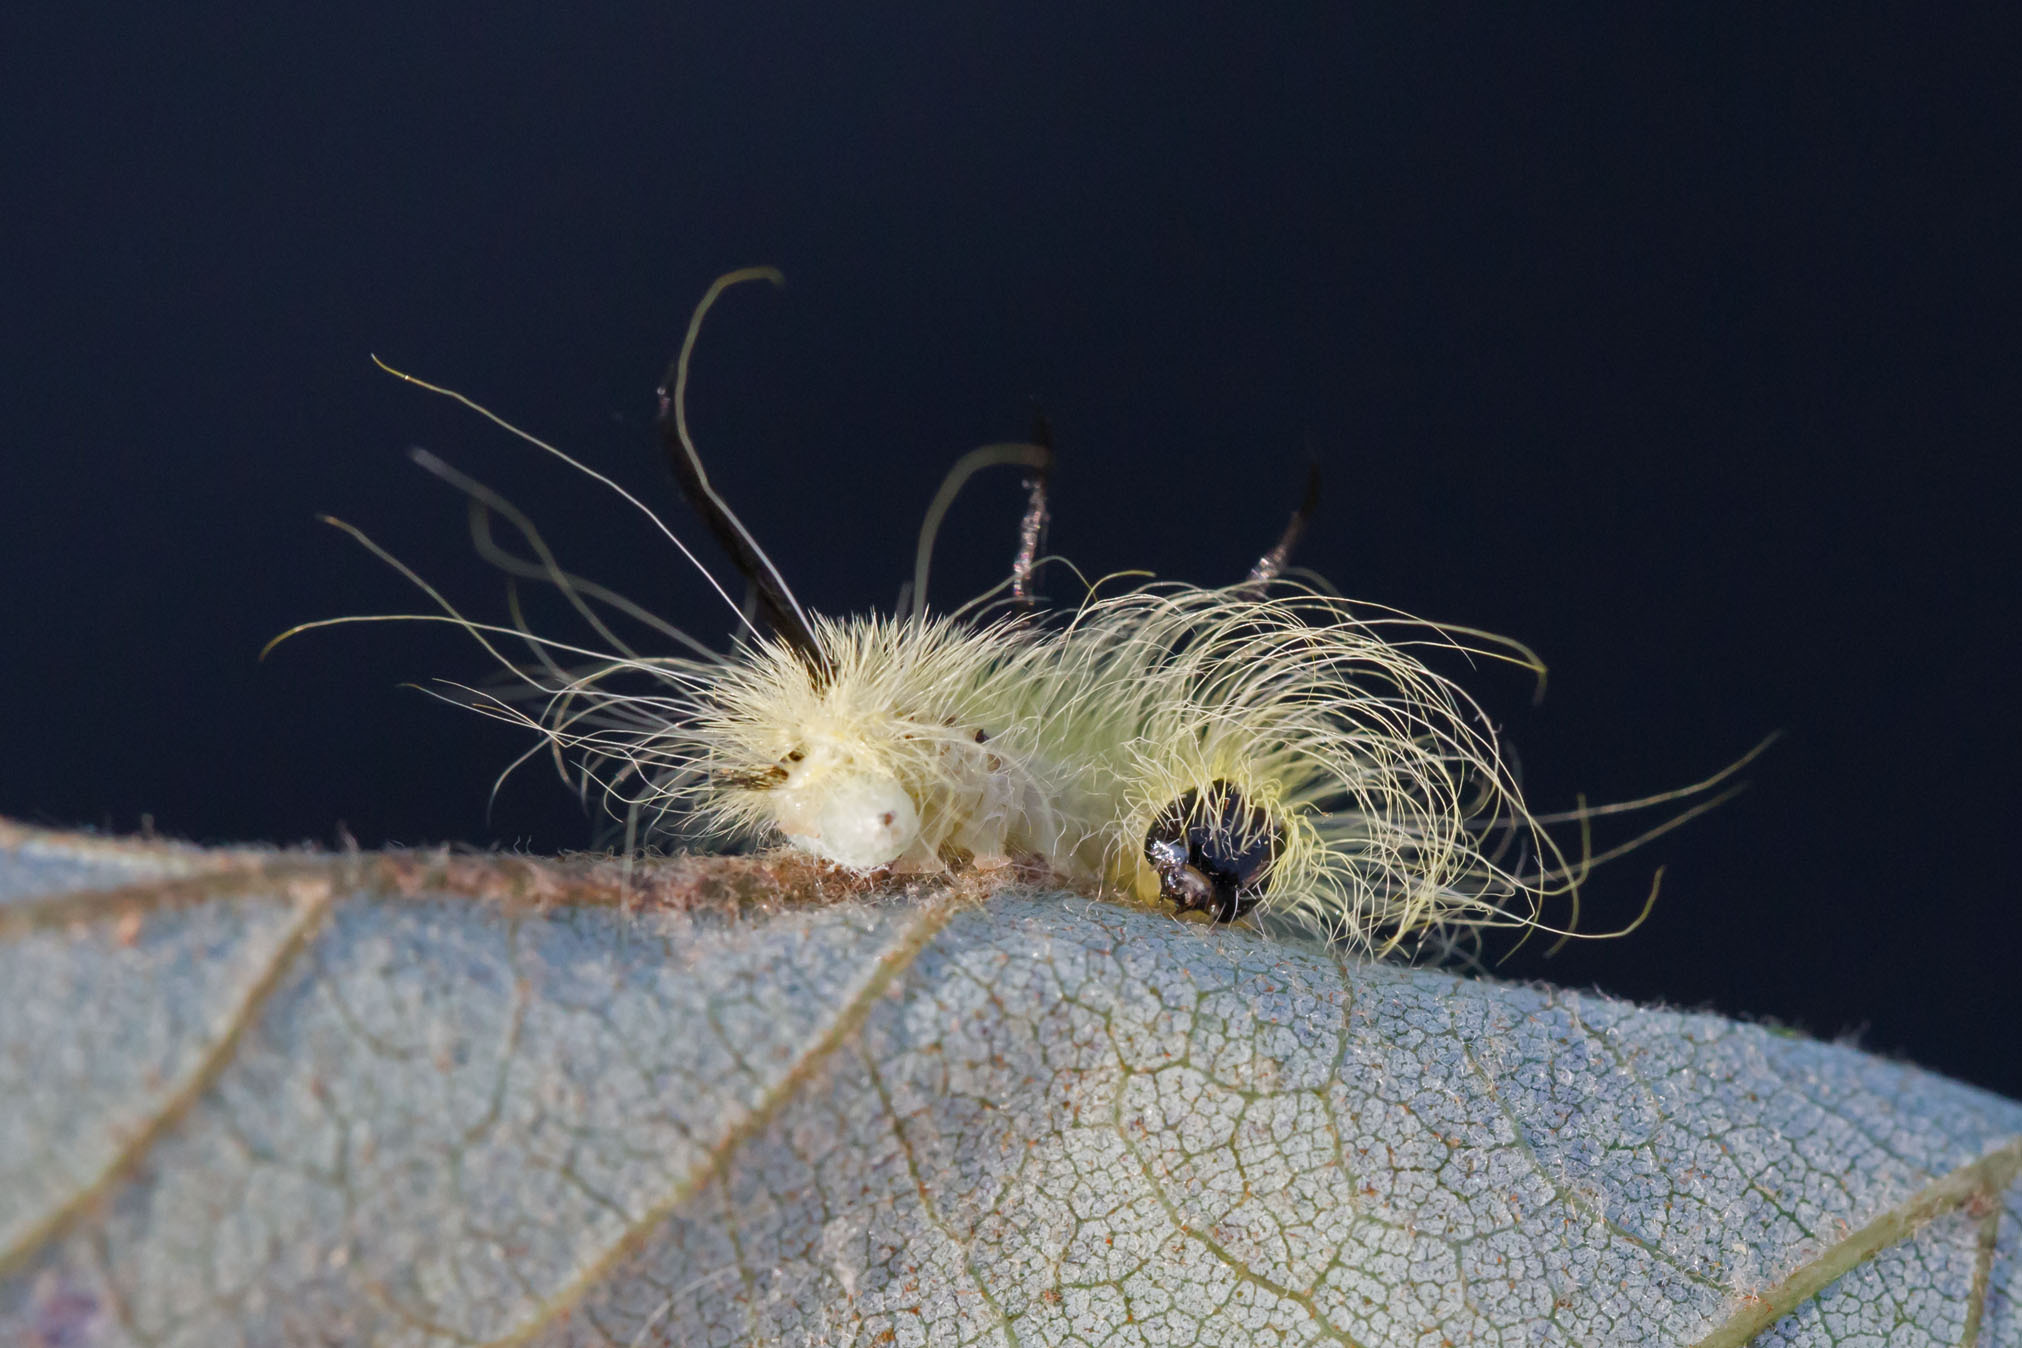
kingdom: Animalia
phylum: Arthropoda
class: Insecta
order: Lepidoptera
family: Noctuidae
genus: Acronicta
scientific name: Acronicta americana
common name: American dagger
